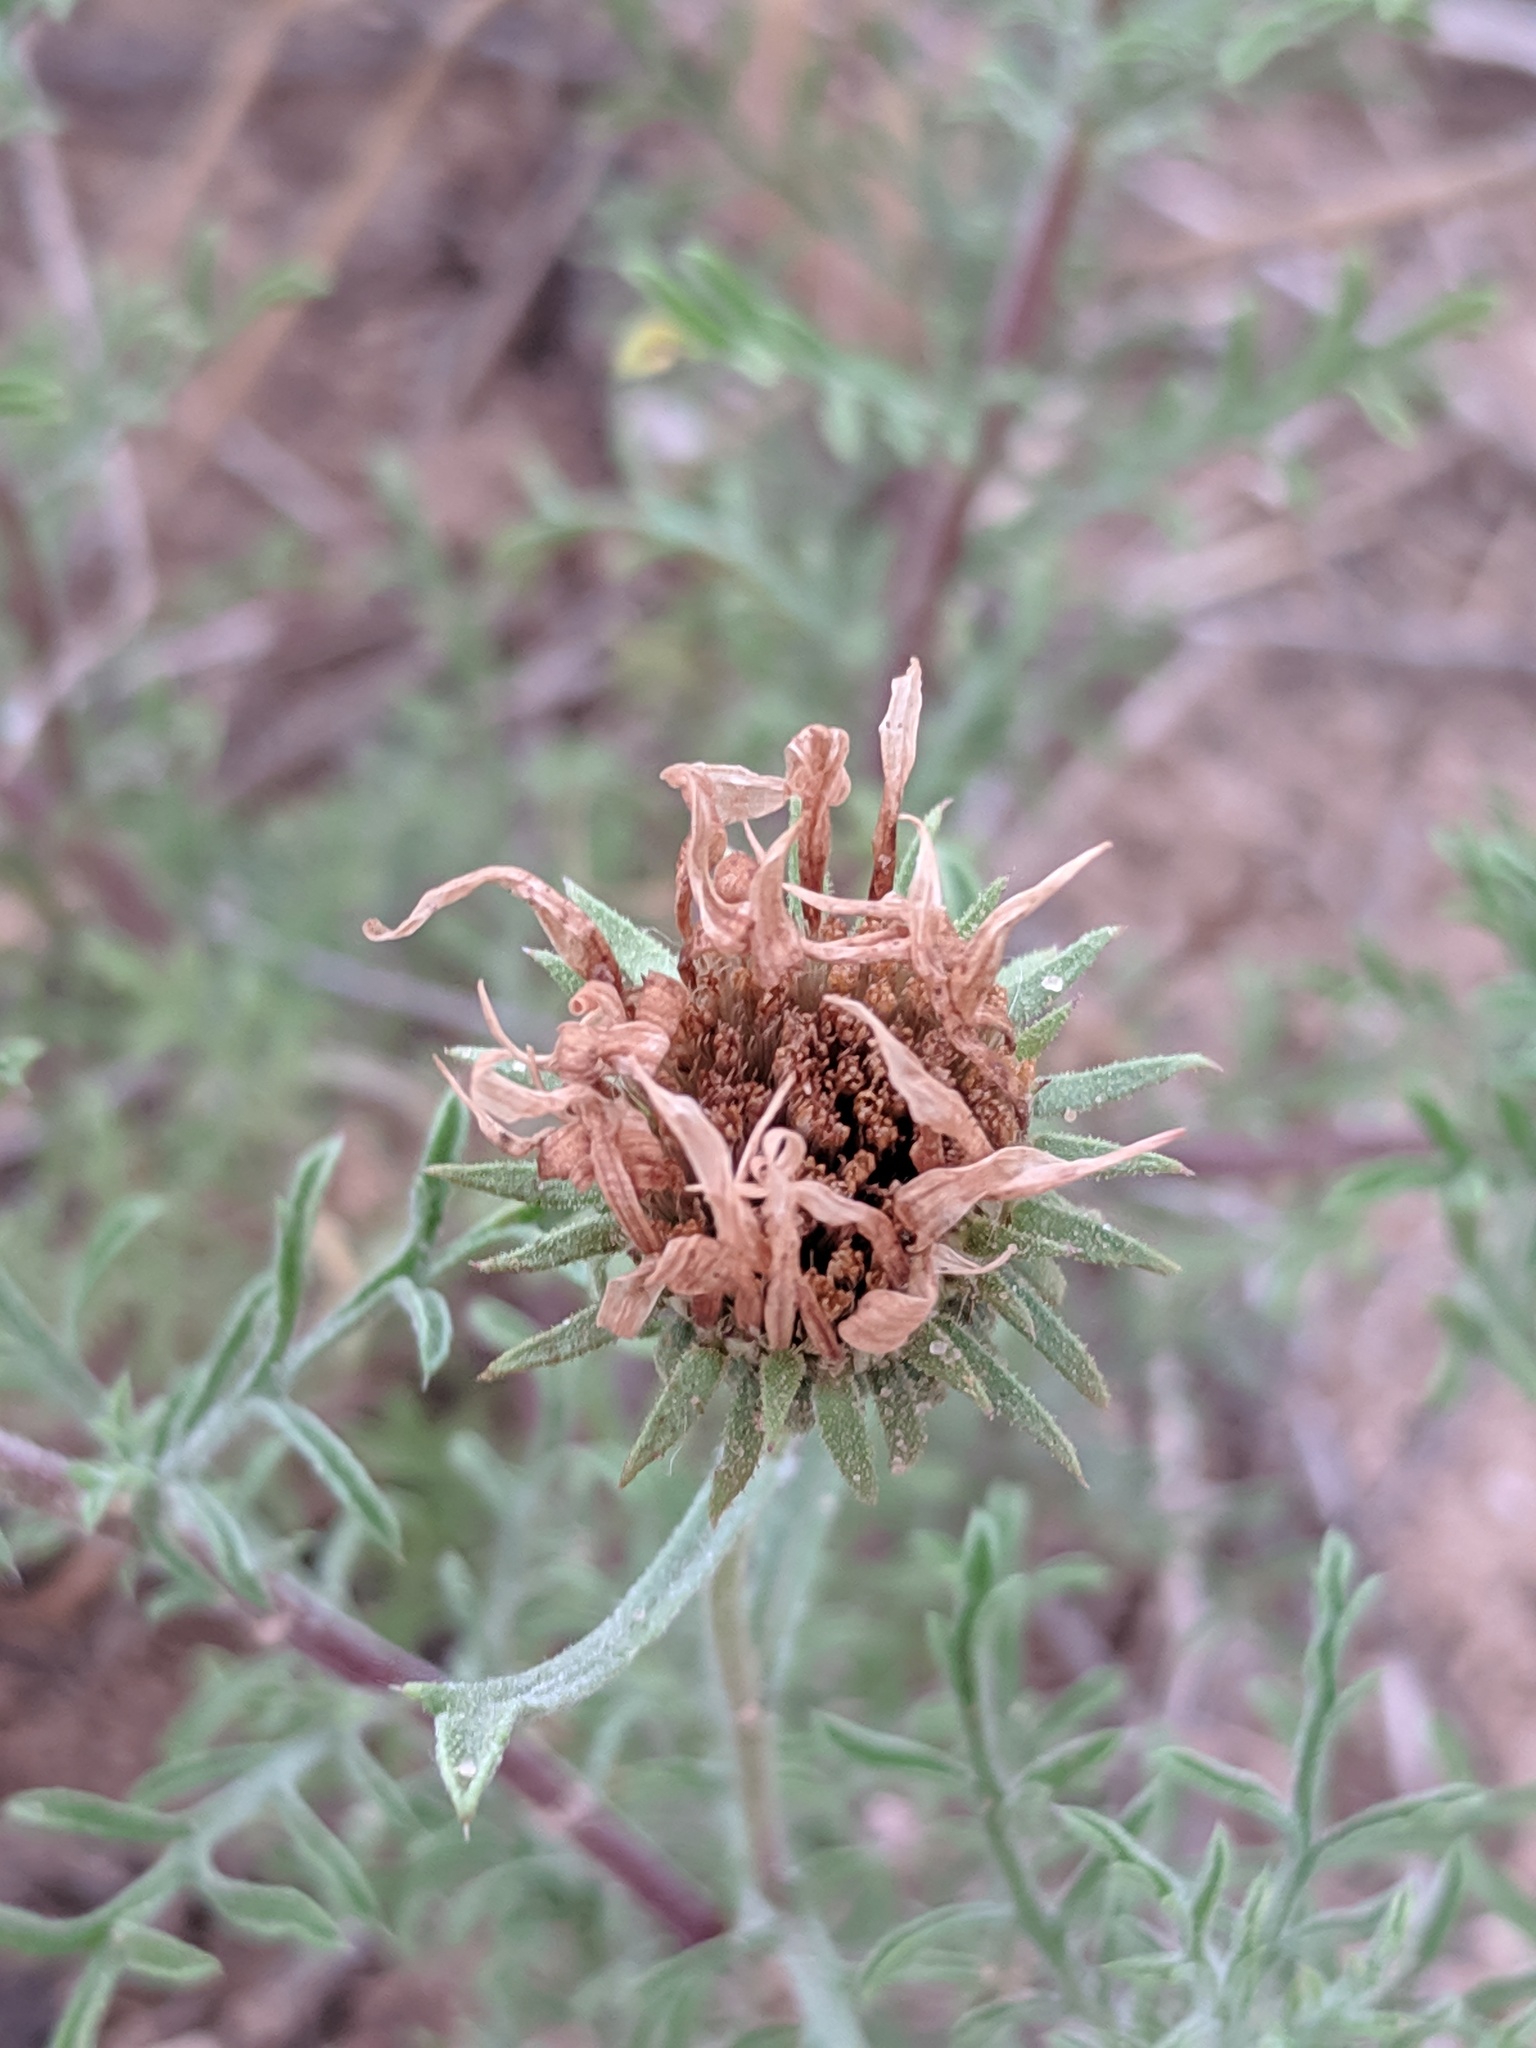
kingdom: Plantae
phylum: Tracheophyta
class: Magnoliopsida
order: Asterales
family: Asteraceae
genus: Machaeranthera
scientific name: Machaeranthera tanacetifolia
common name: Tansy-aster
